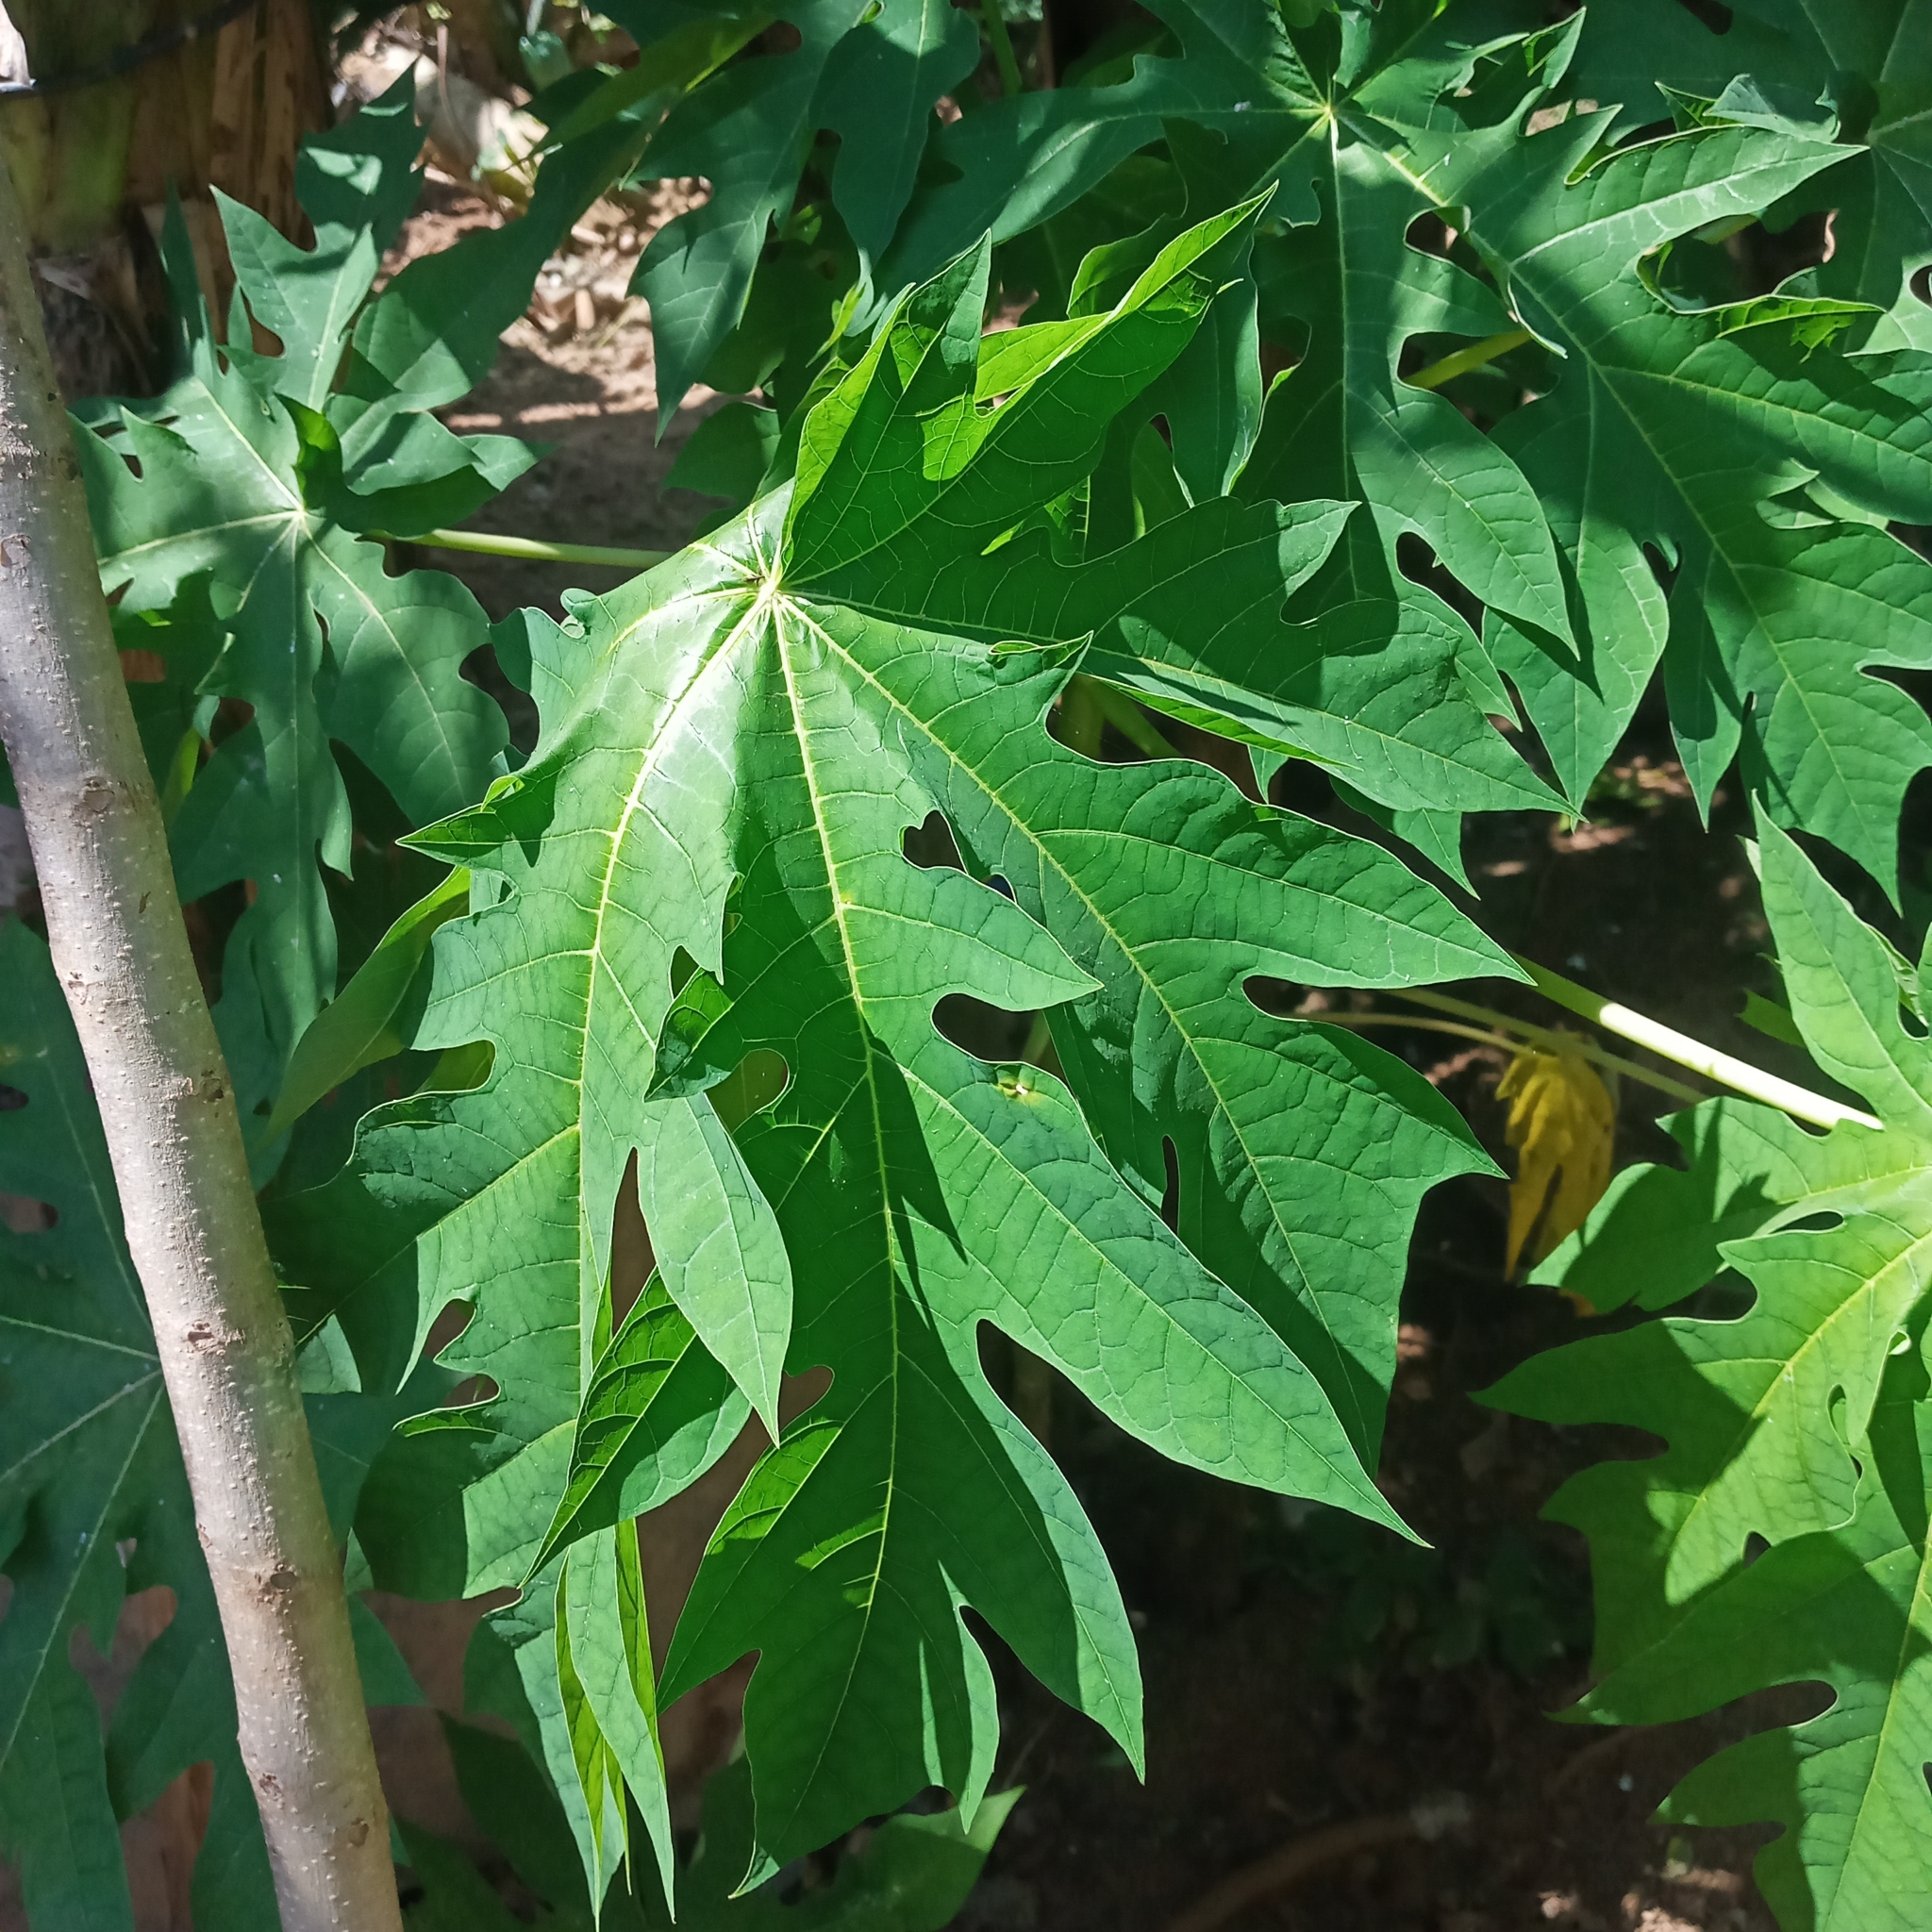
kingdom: Plantae
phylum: Tracheophyta
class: Magnoliopsida
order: Brassicales
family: Caricaceae
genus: Carica
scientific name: Carica papaya
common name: Papaya
